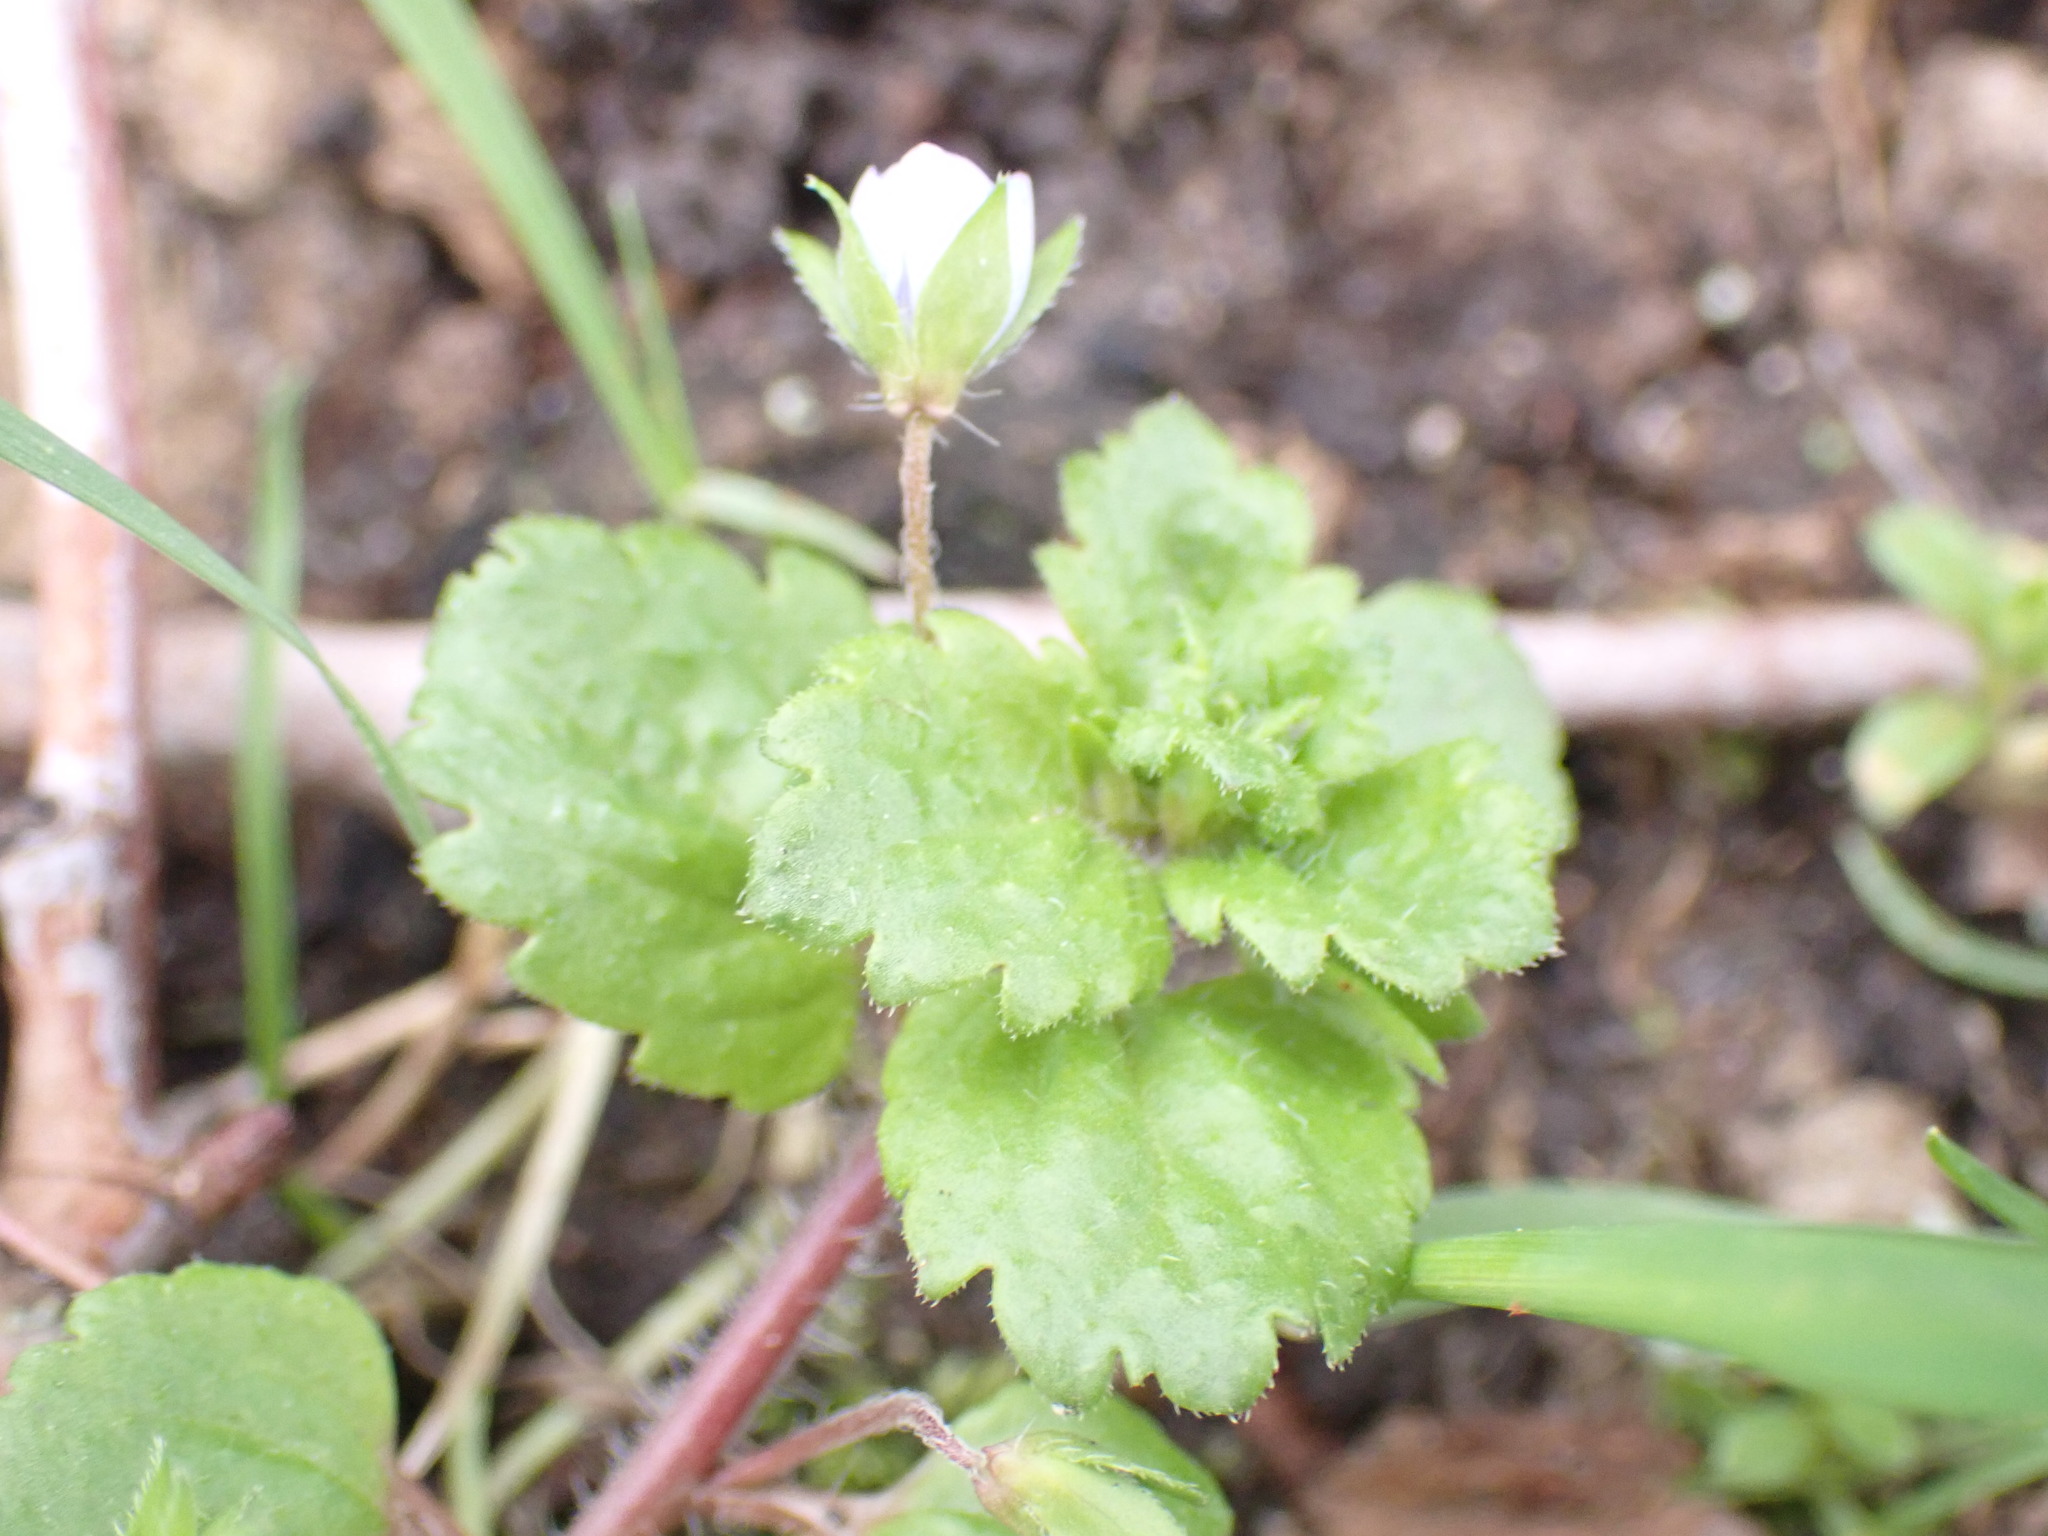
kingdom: Plantae
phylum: Tracheophyta
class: Magnoliopsida
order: Lamiales
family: Plantaginaceae
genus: Veronica
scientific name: Veronica persica
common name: Common field-speedwell
